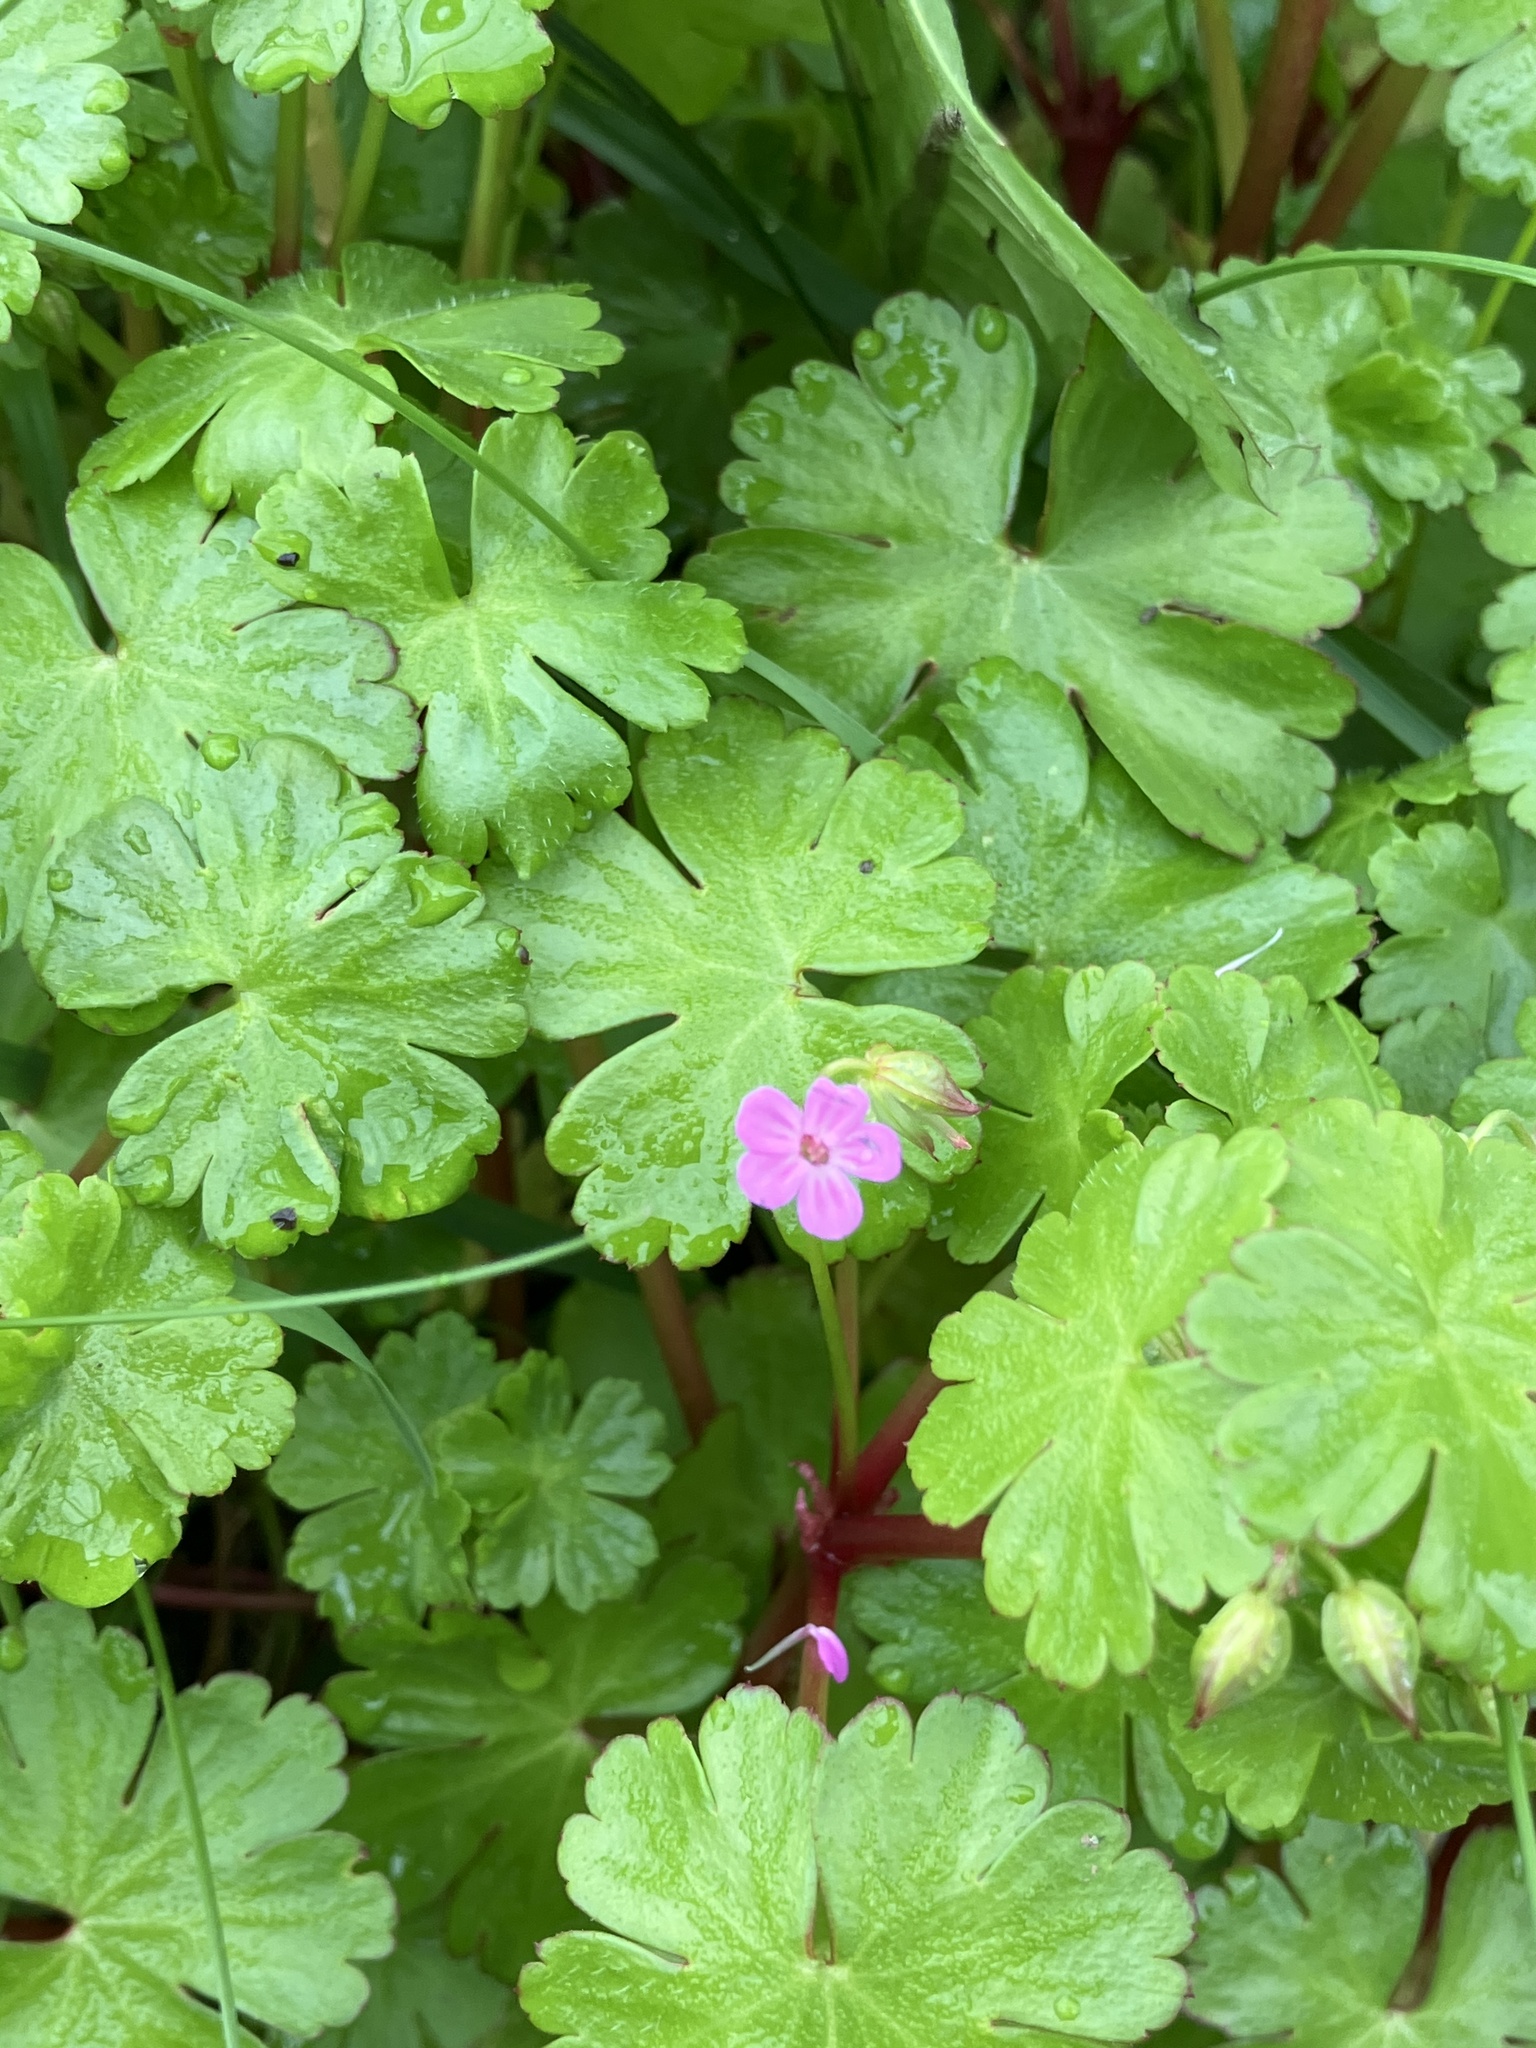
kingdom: Plantae
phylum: Tracheophyta
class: Magnoliopsida
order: Geraniales
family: Geraniaceae
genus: Geranium
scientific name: Geranium lucidum
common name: Shining crane's-bill
